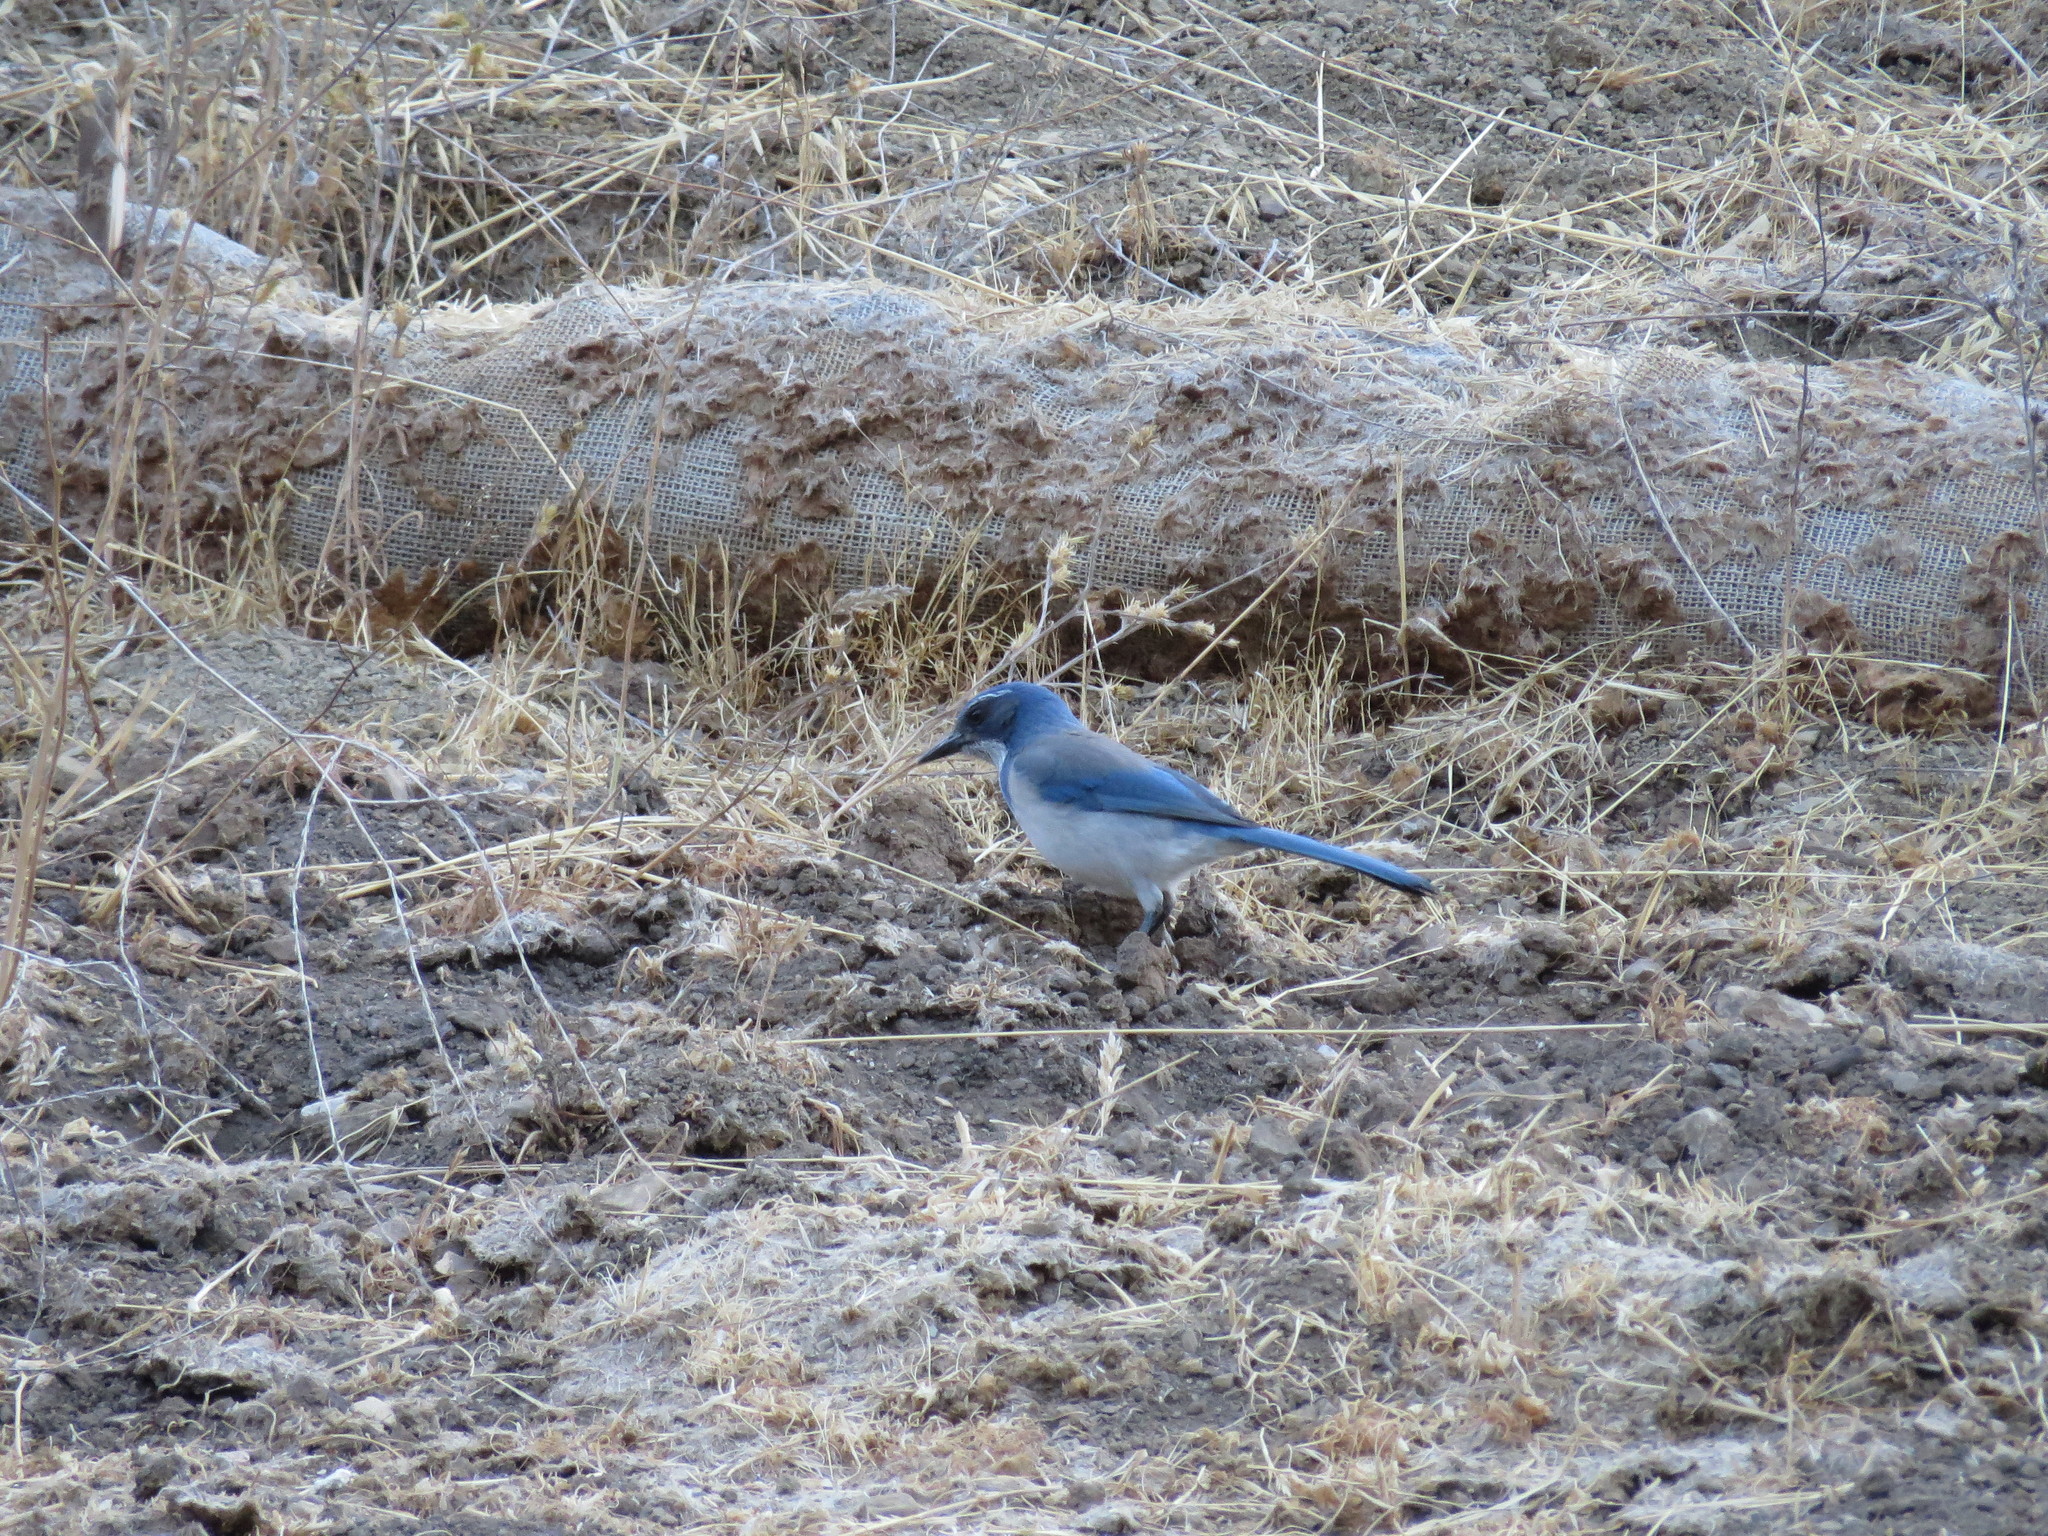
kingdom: Animalia
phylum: Chordata
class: Aves
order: Passeriformes
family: Corvidae
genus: Aphelocoma
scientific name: Aphelocoma californica
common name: California scrub-jay
